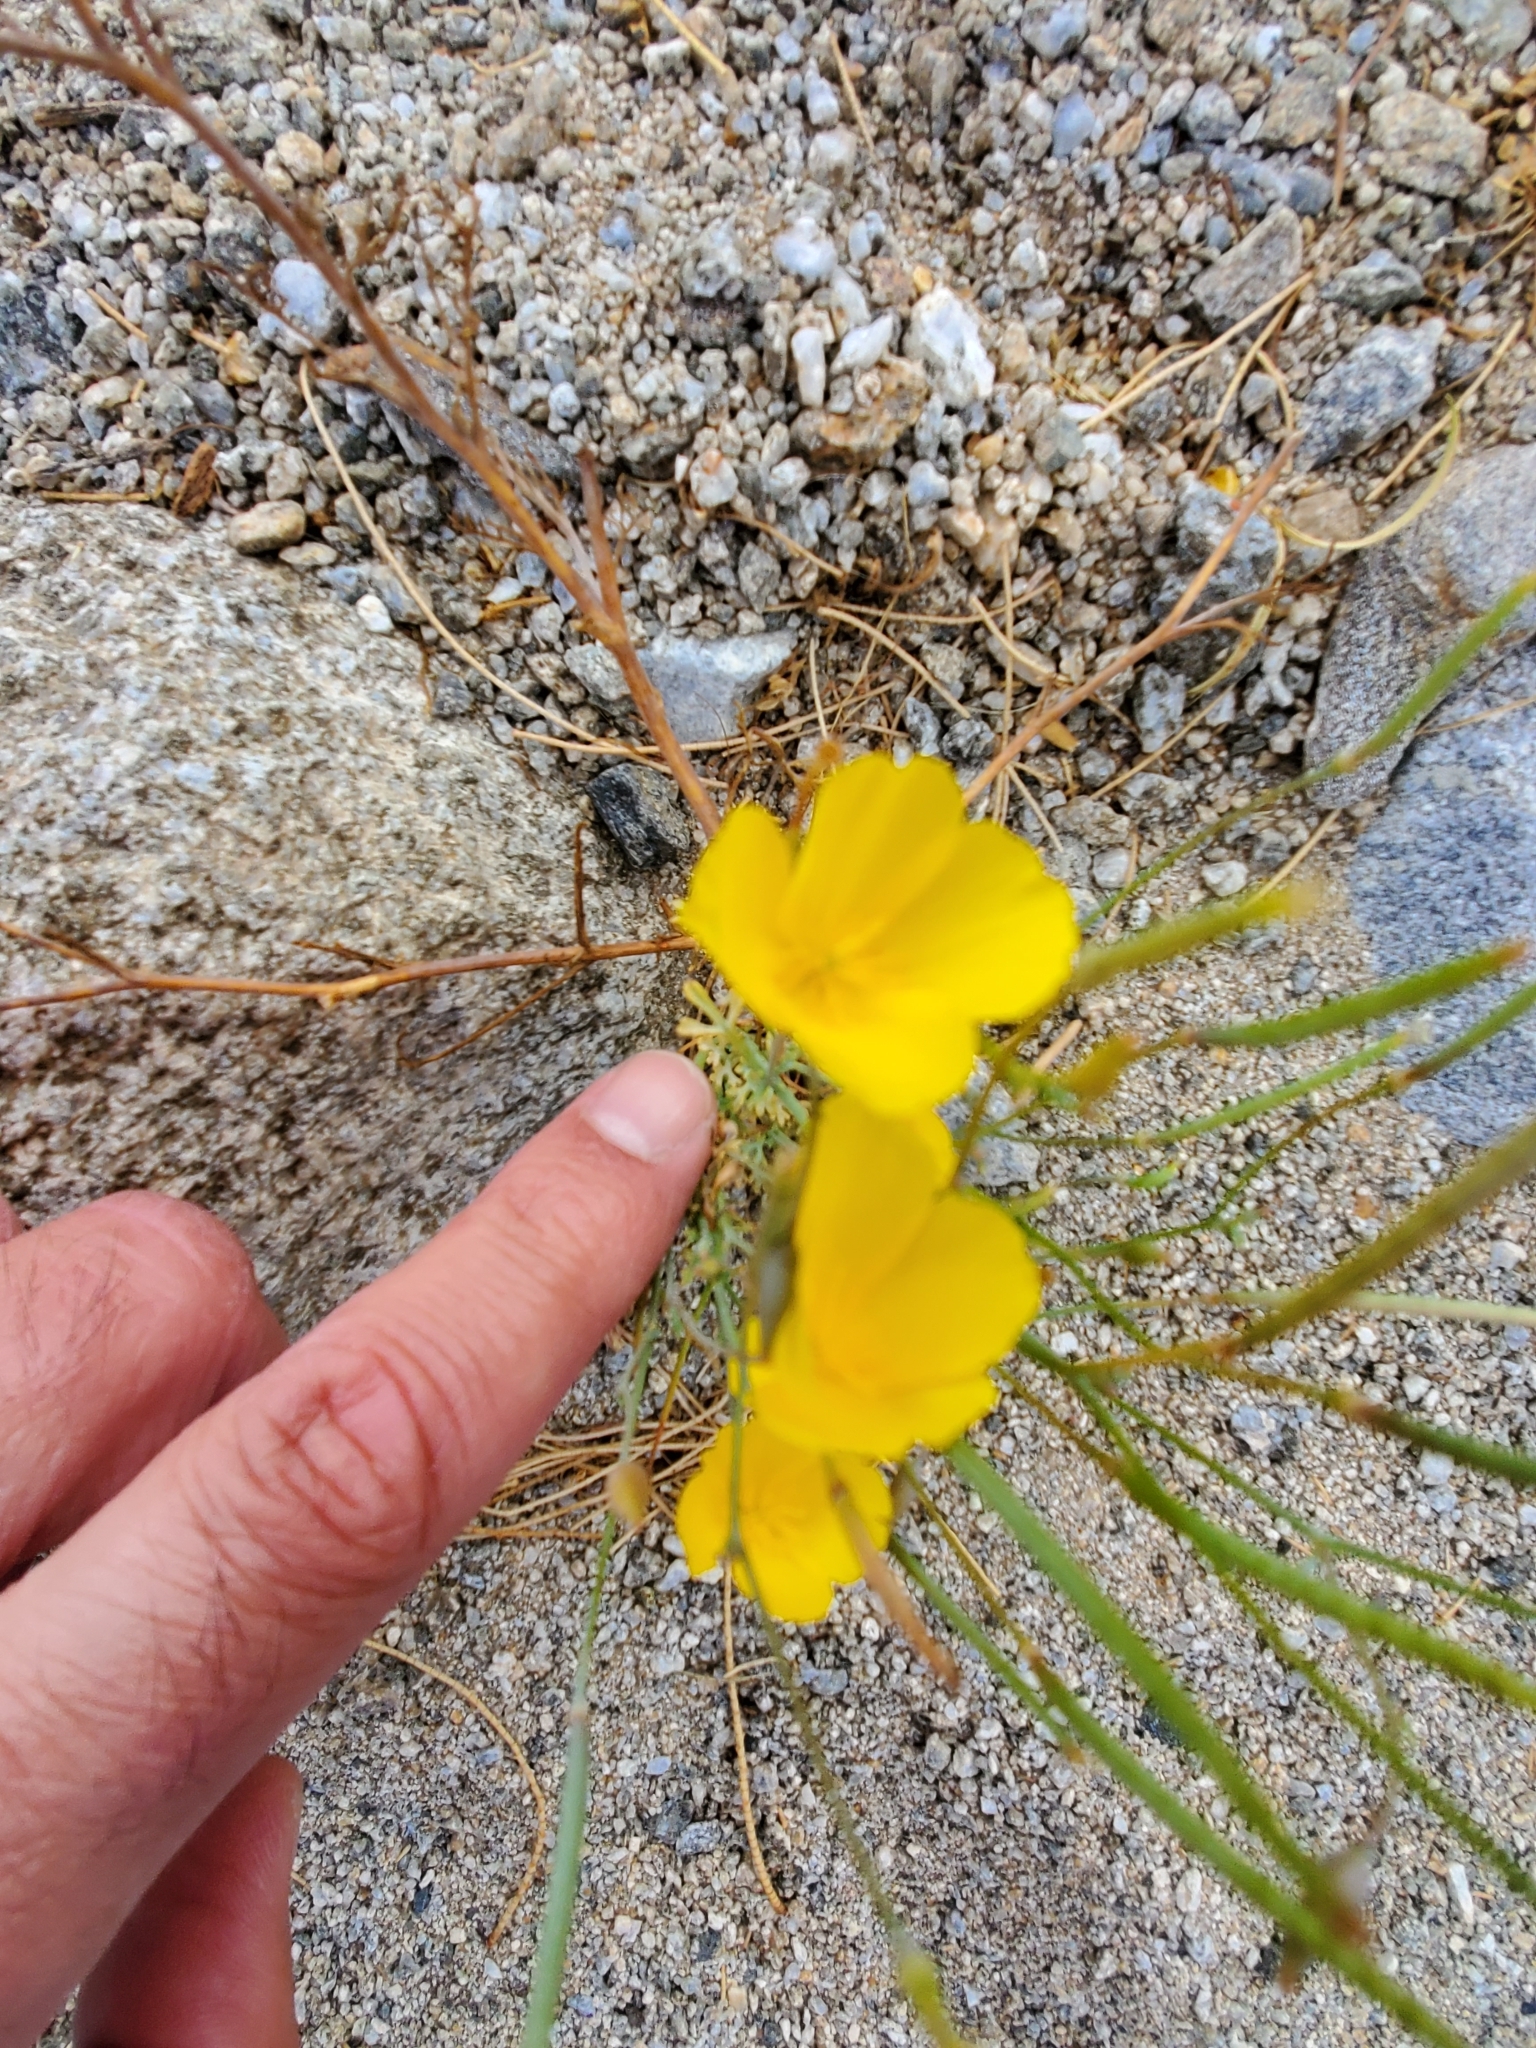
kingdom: Plantae
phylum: Tracheophyta
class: Magnoliopsida
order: Ranunculales
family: Papaveraceae
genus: Eschscholzia
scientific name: Eschscholzia parishii
